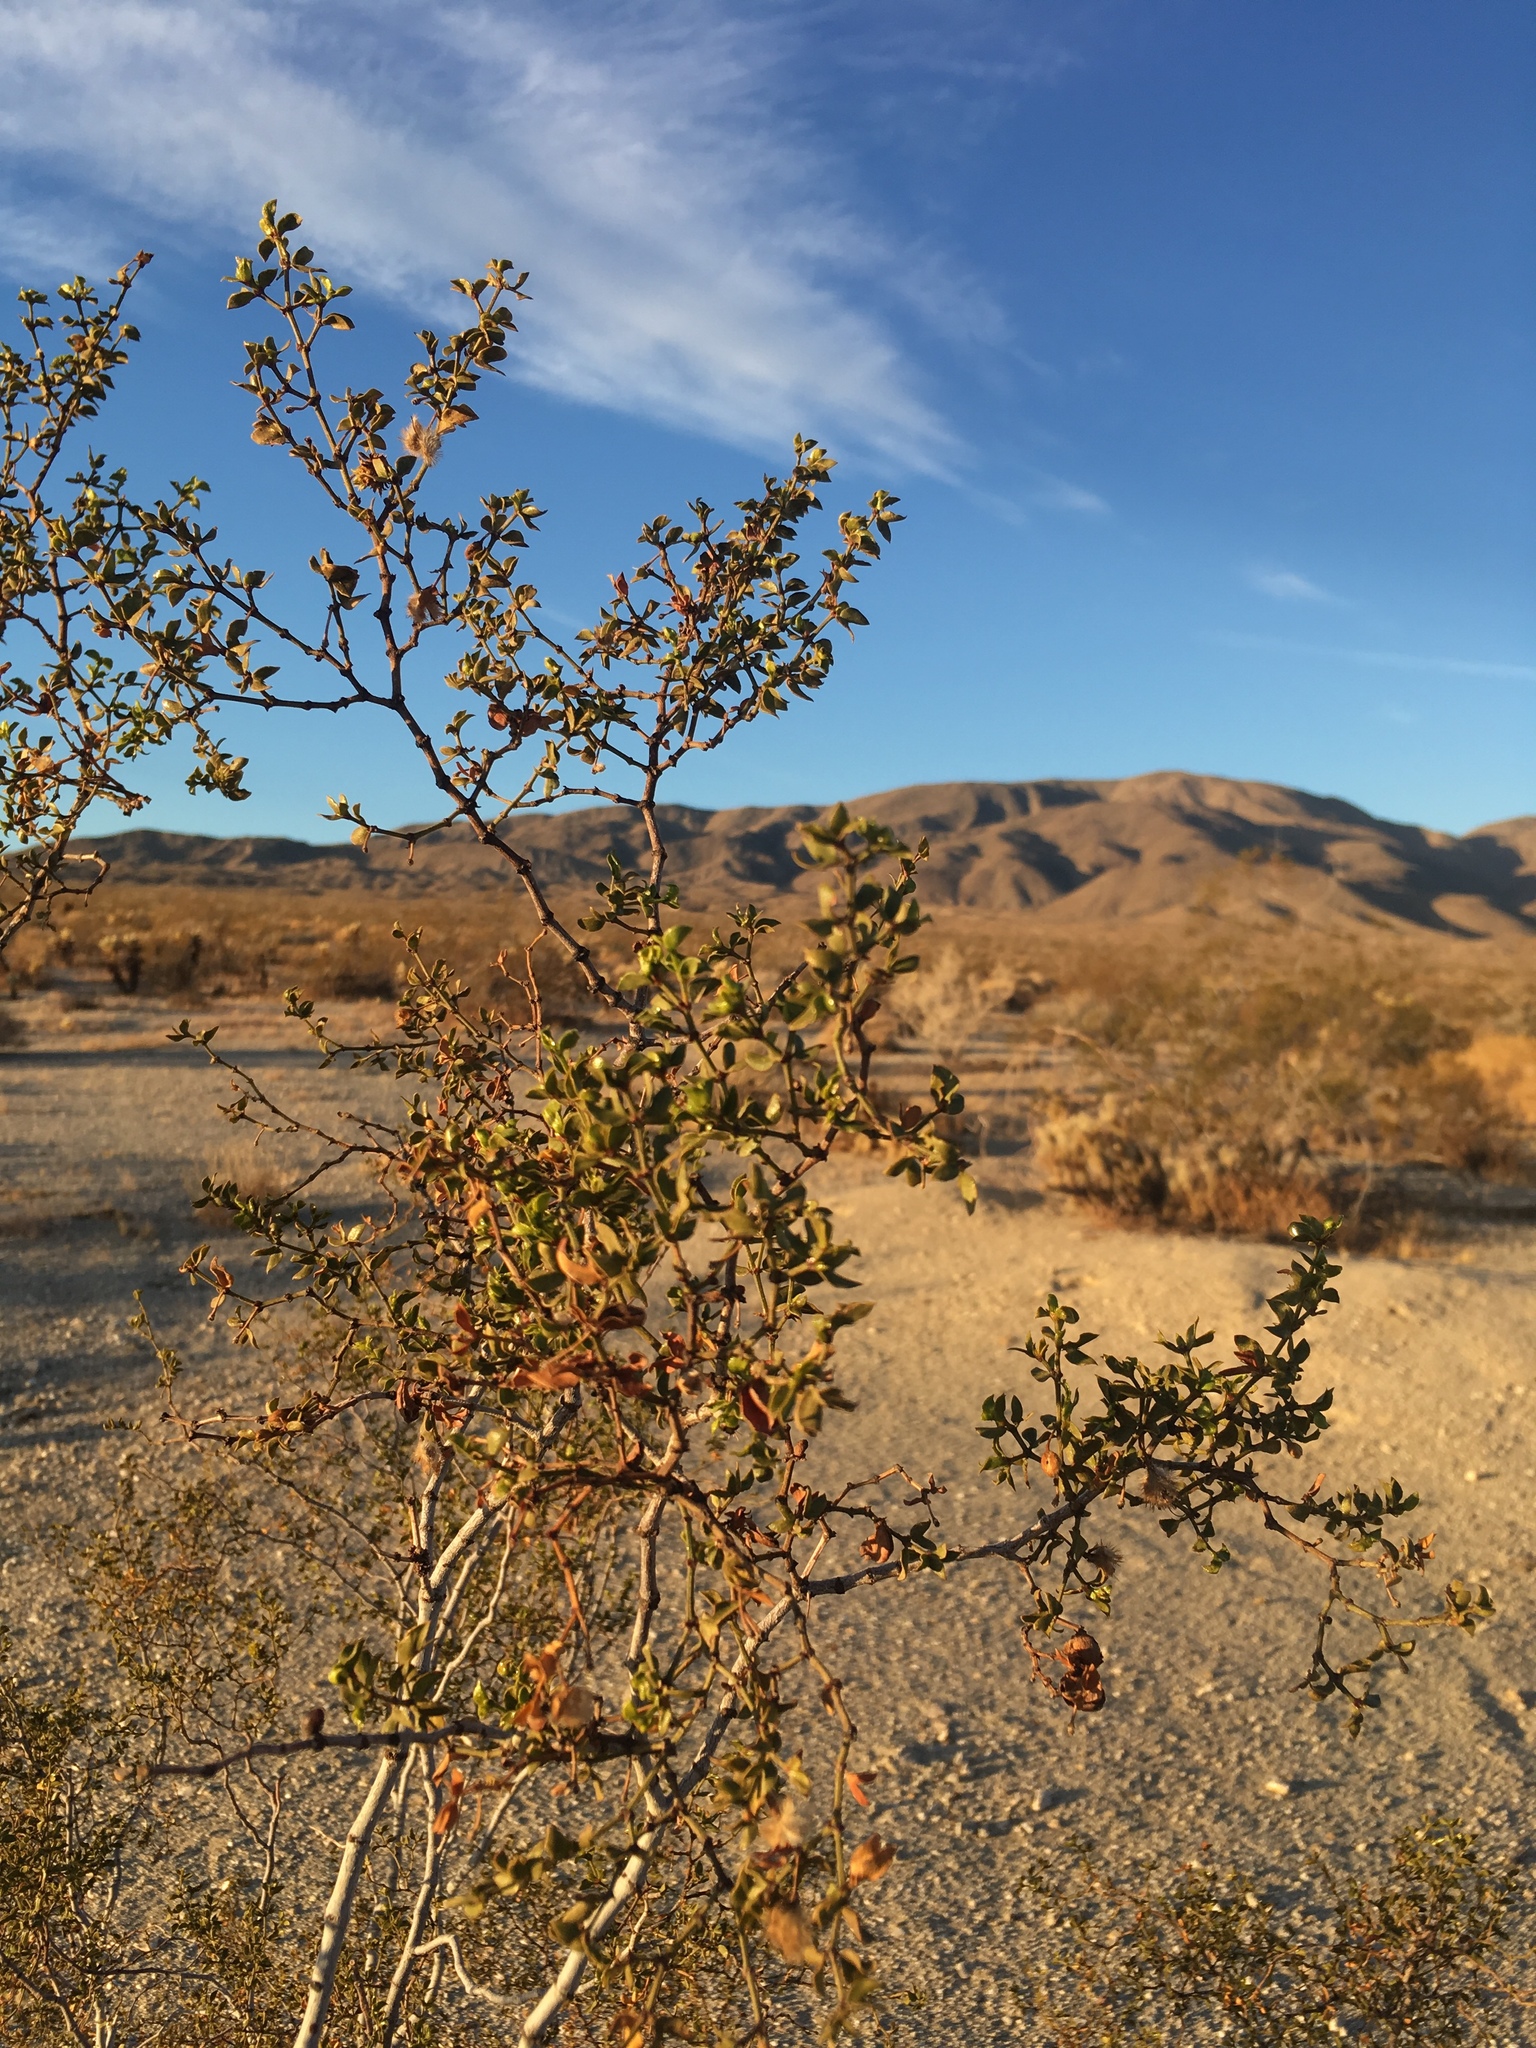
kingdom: Plantae
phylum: Tracheophyta
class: Magnoliopsida
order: Zygophyllales
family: Zygophyllaceae
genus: Larrea
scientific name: Larrea tridentata
